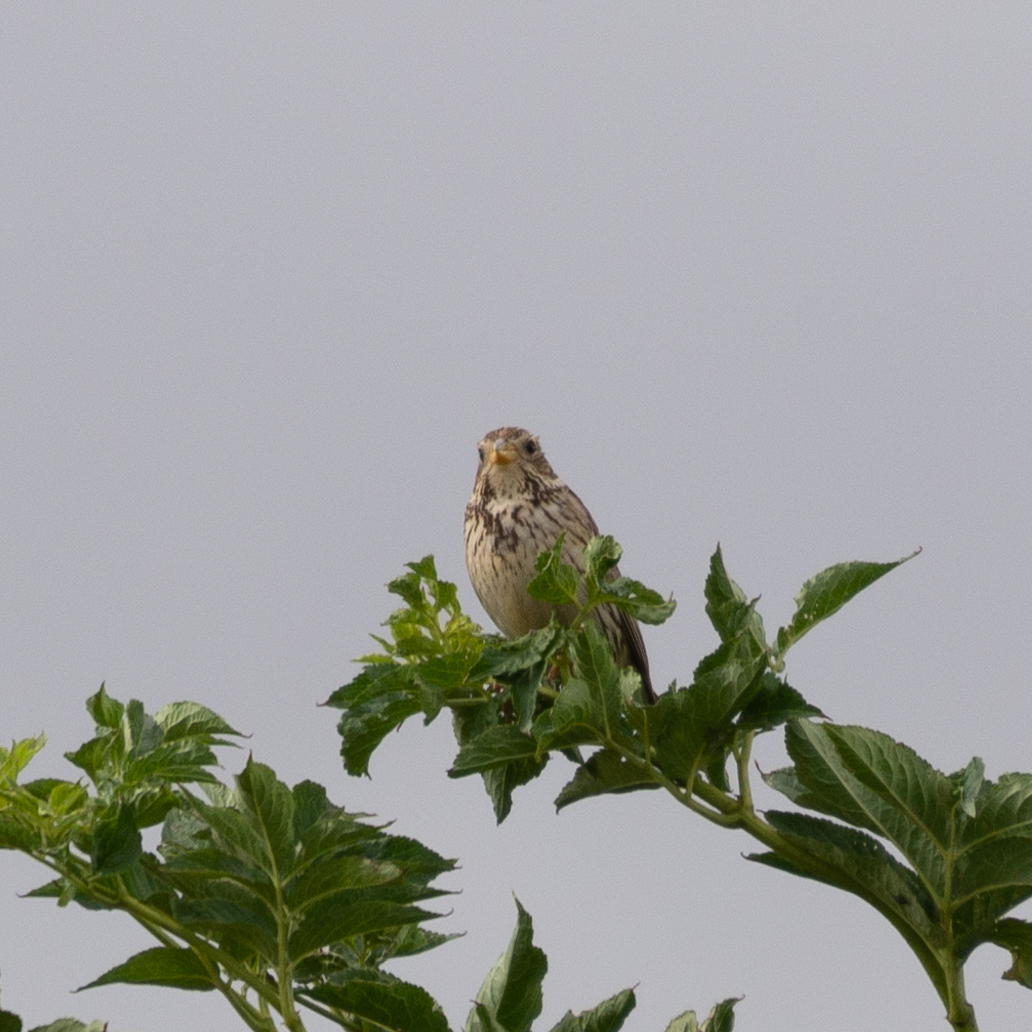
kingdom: Animalia
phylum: Chordata
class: Aves
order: Passeriformes
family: Emberizidae
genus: Emberiza
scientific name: Emberiza calandra
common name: Corn bunting
